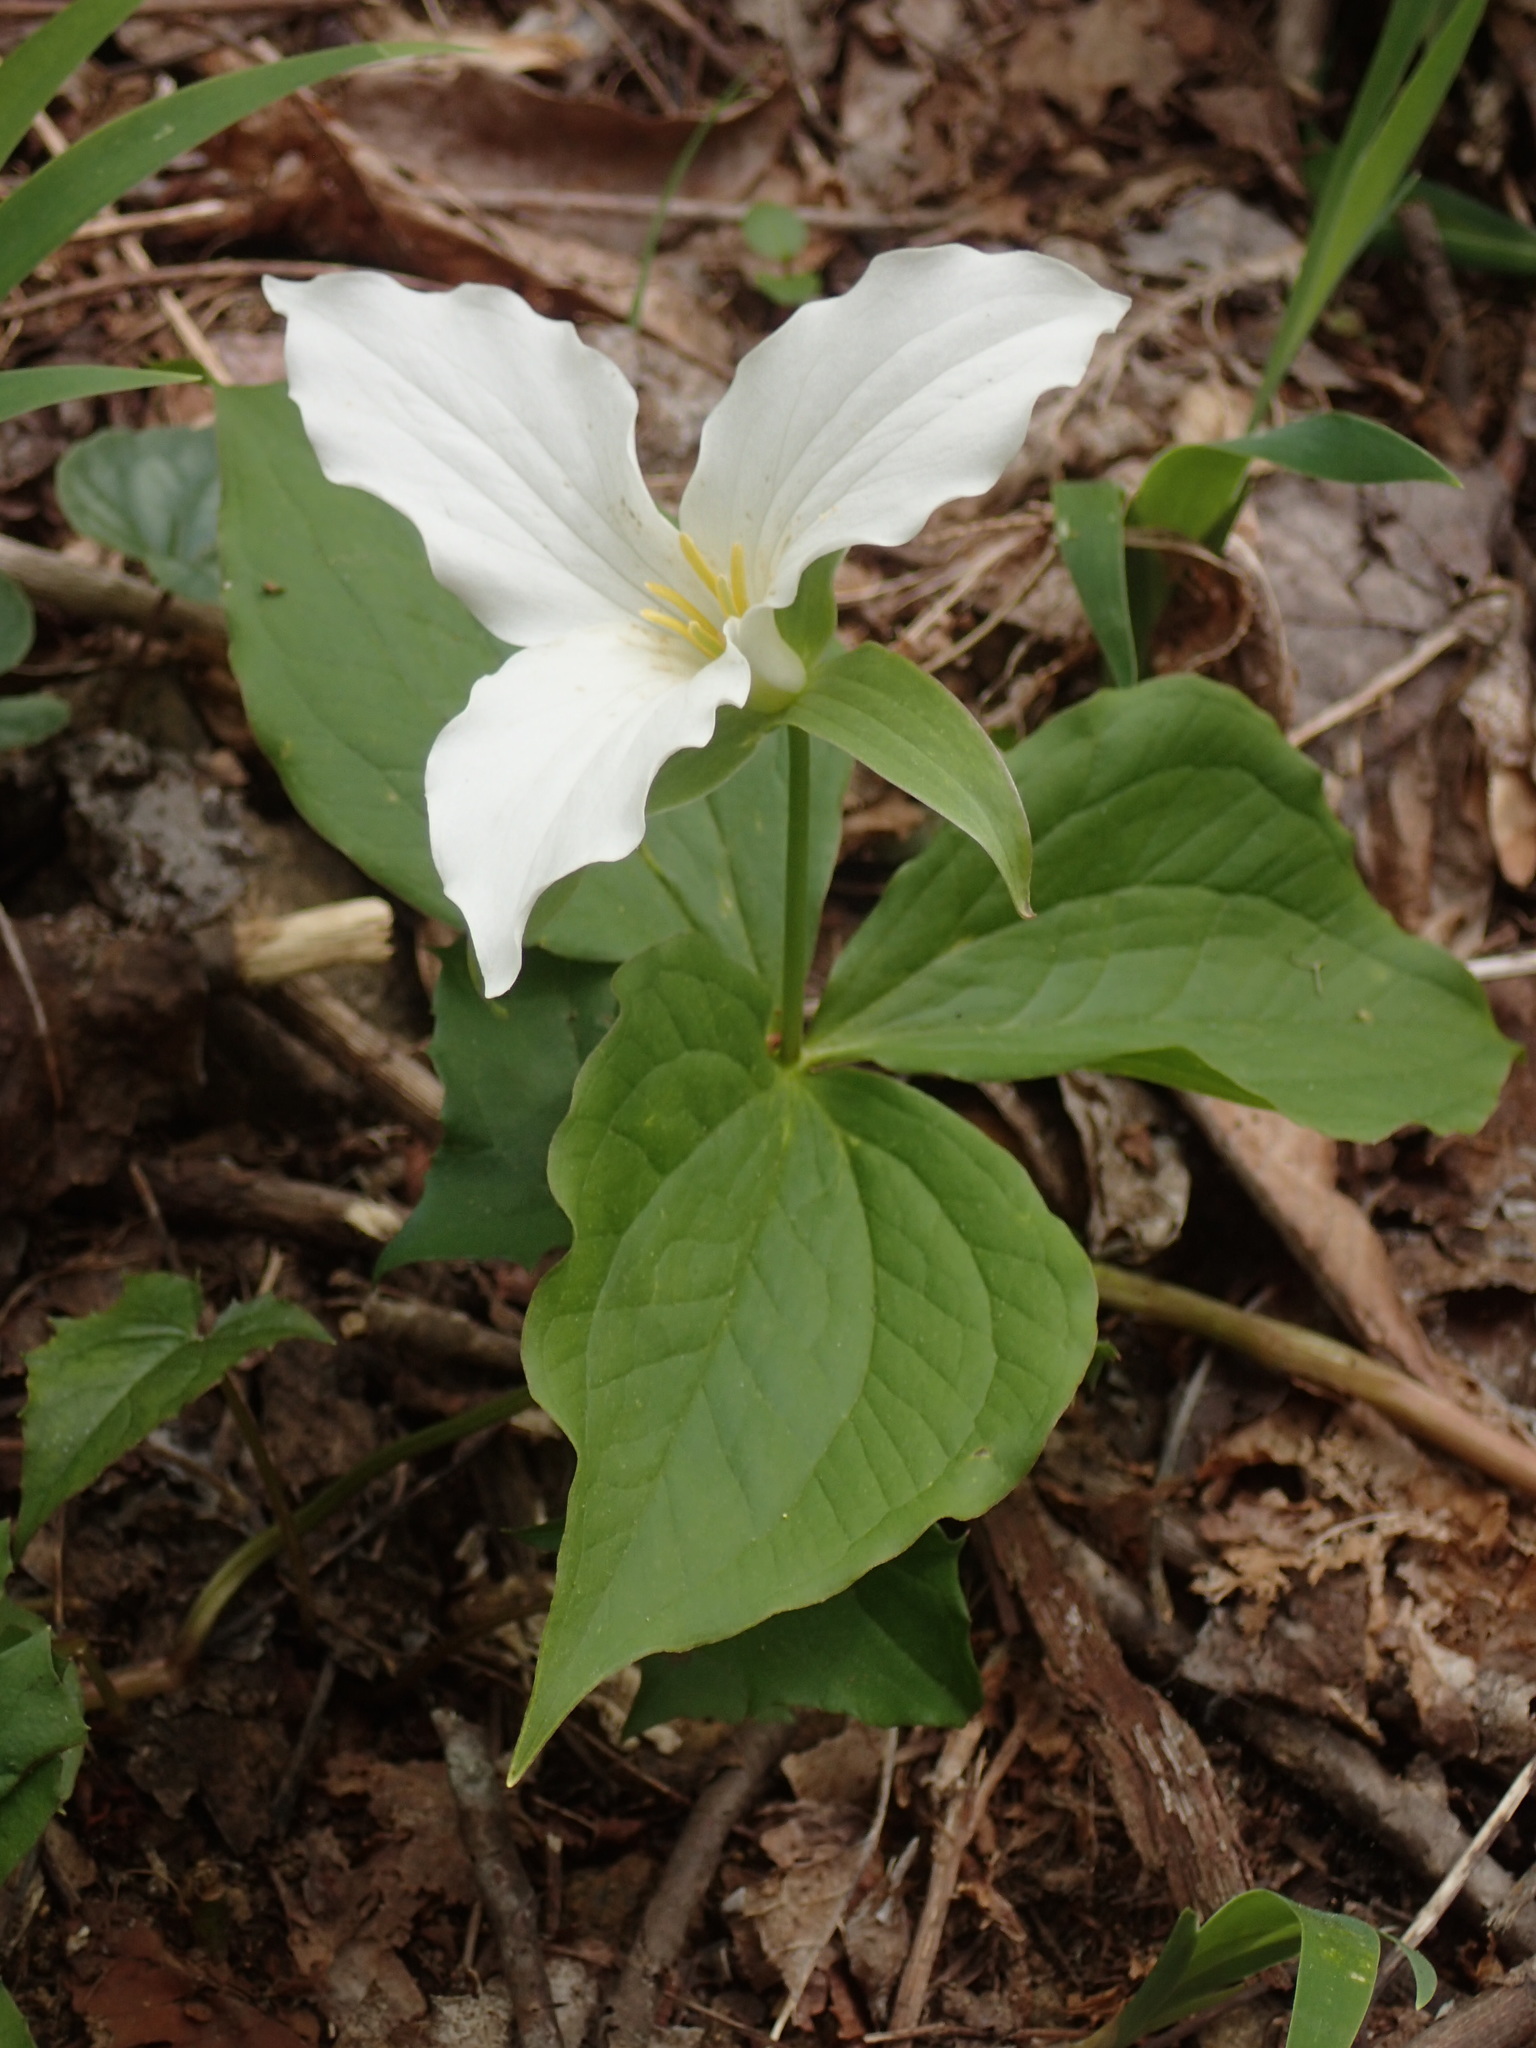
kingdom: Plantae
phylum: Tracheophyta
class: Liliopsida
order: Liliales
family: Melanthiaceae
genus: Trillium
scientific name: Trillium grandiflorum
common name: Great white trillium
